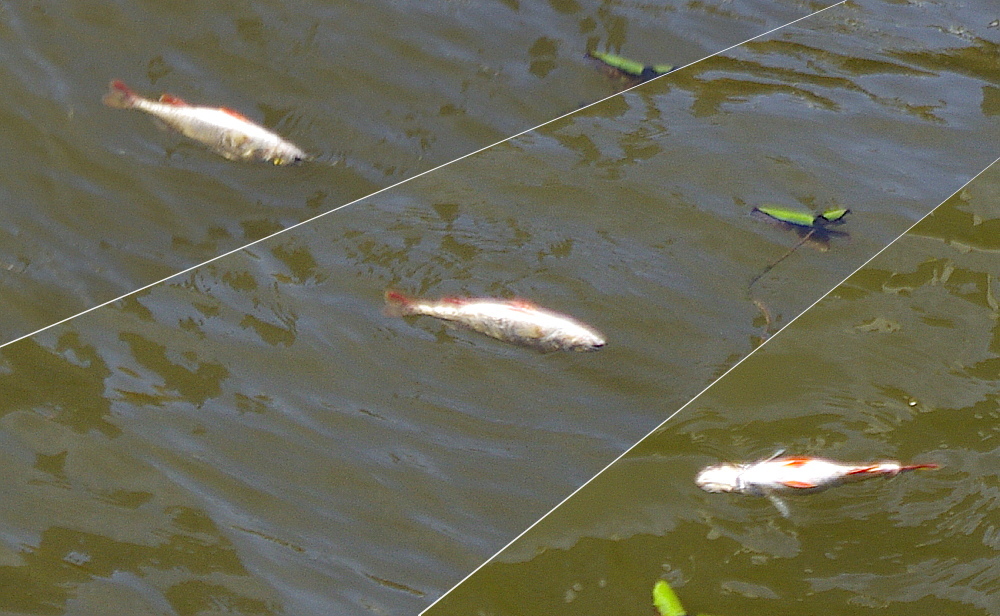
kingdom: Animalia
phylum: Chordata
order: Perciformes
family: Percidae
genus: Perca
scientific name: Perca fluviatilis
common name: Perch
